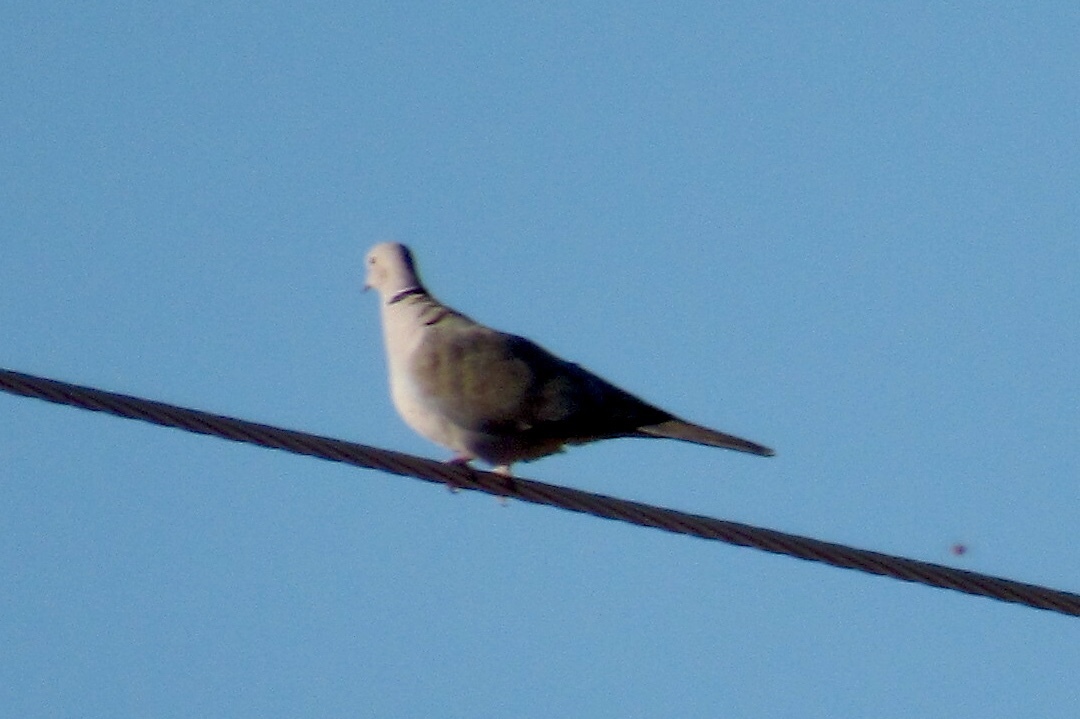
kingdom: Animalia
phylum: Chordata
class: Aves
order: Columbiformes
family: Columbidae
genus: Streptopelia
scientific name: Streptopelia decaocto
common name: Eurasian collared dove
